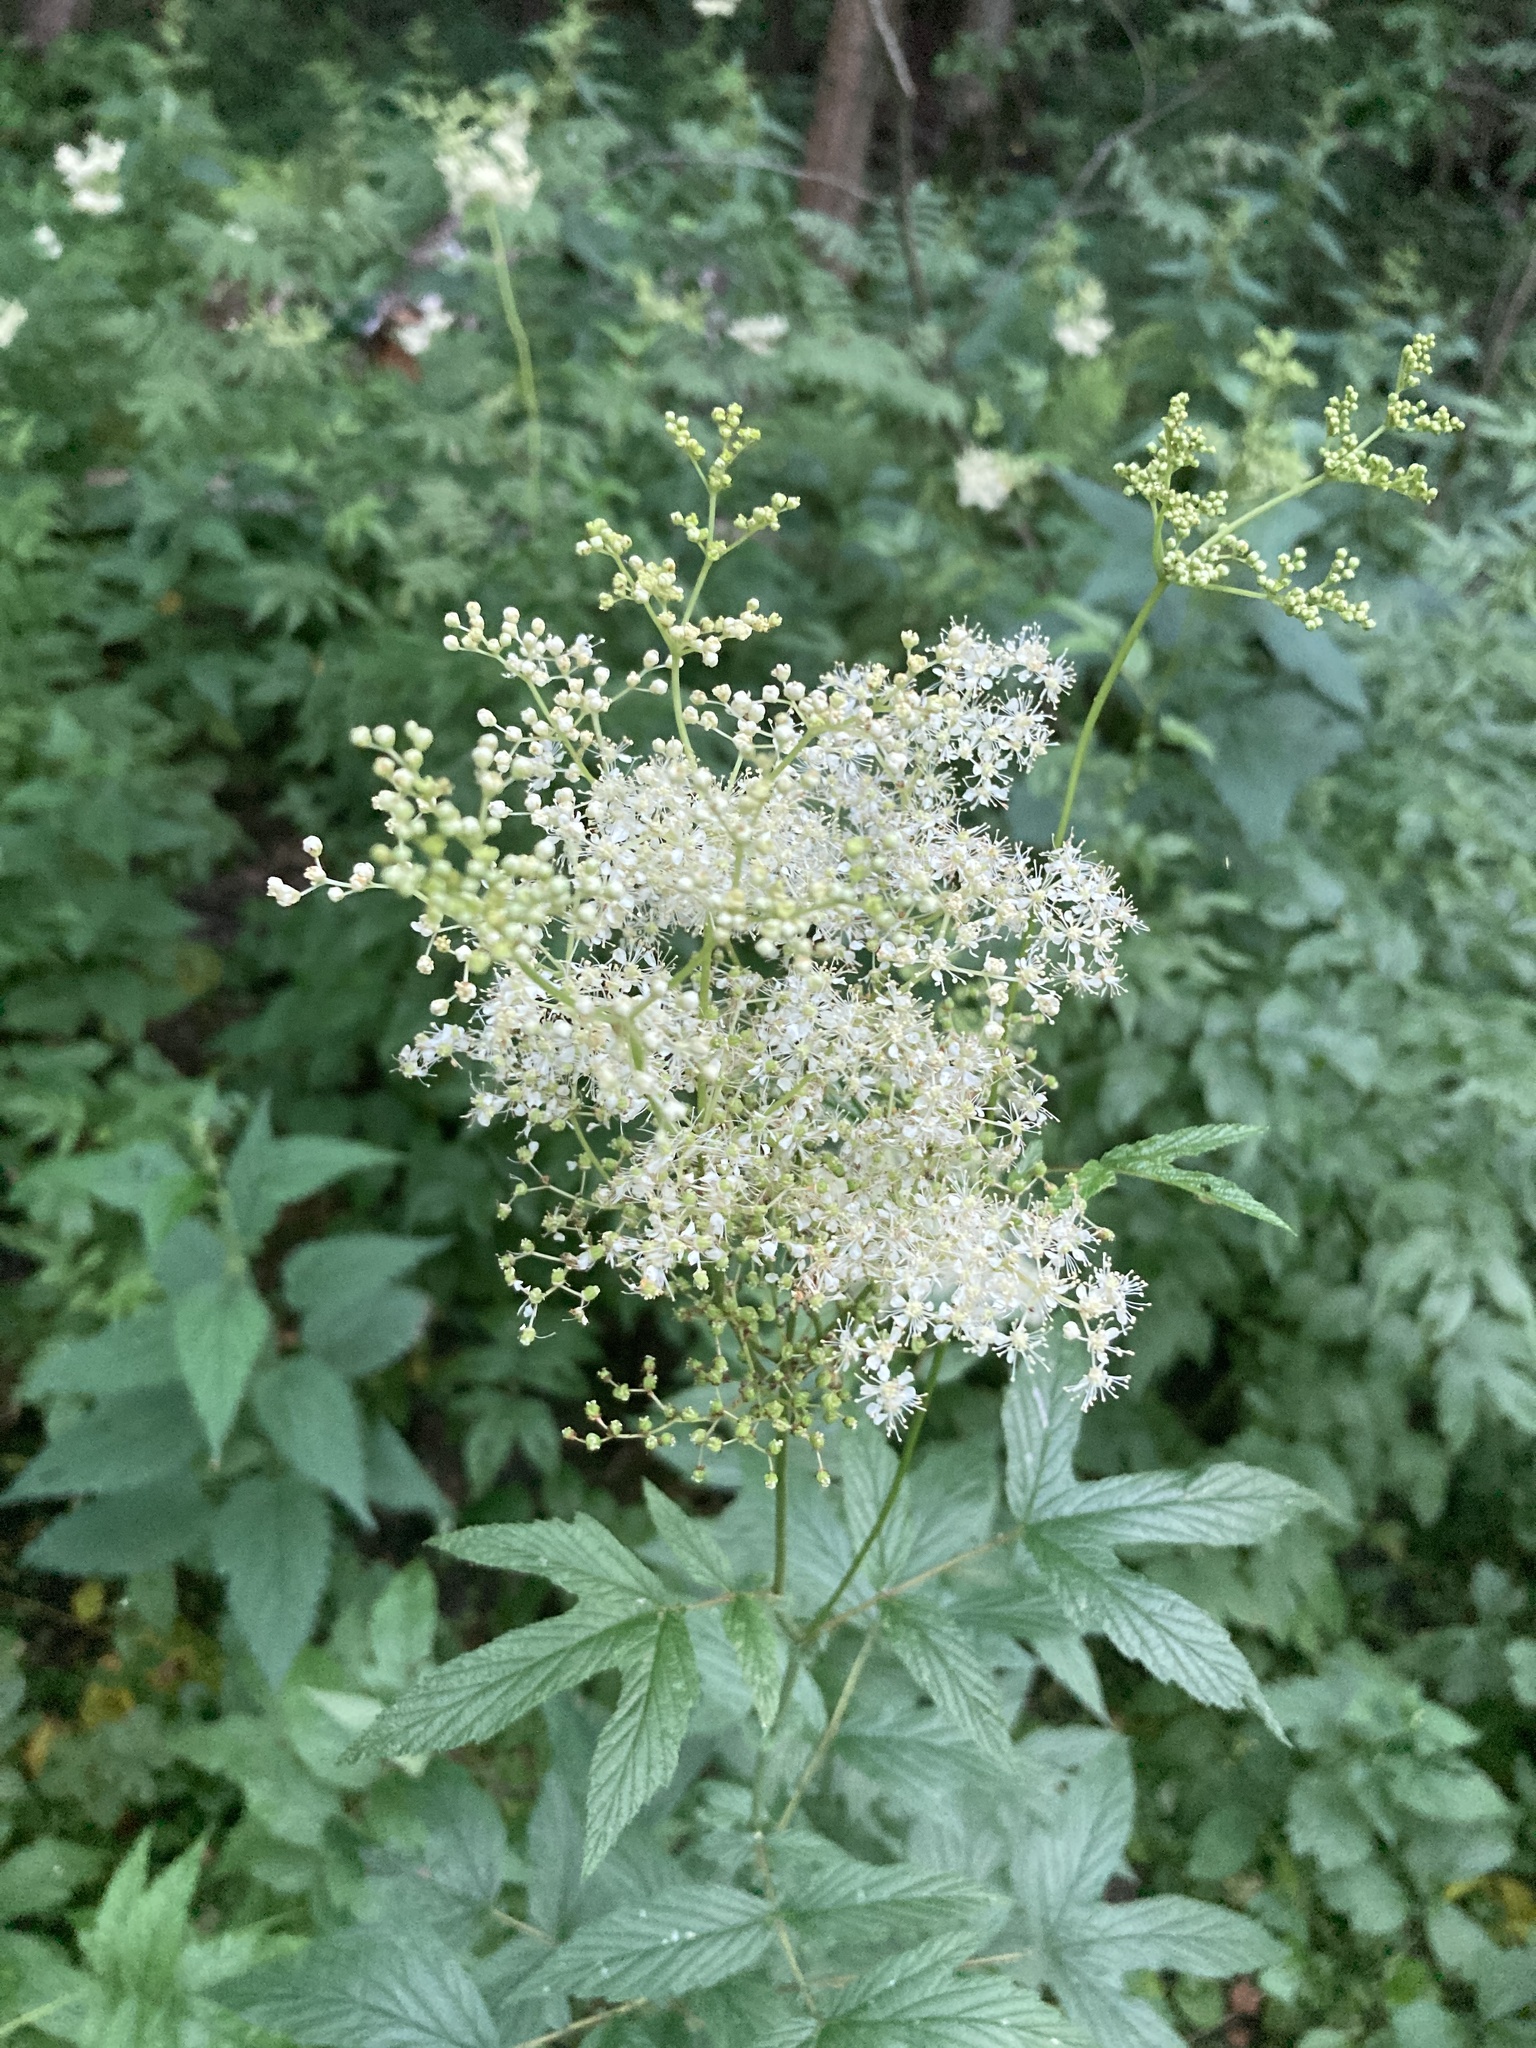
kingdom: Plantae
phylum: Tracheophyta
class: Magnoliopsida
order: Rosales
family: Rosaceae
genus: Filipendula
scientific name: Filipendula ulmaria
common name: Meadowsweet
